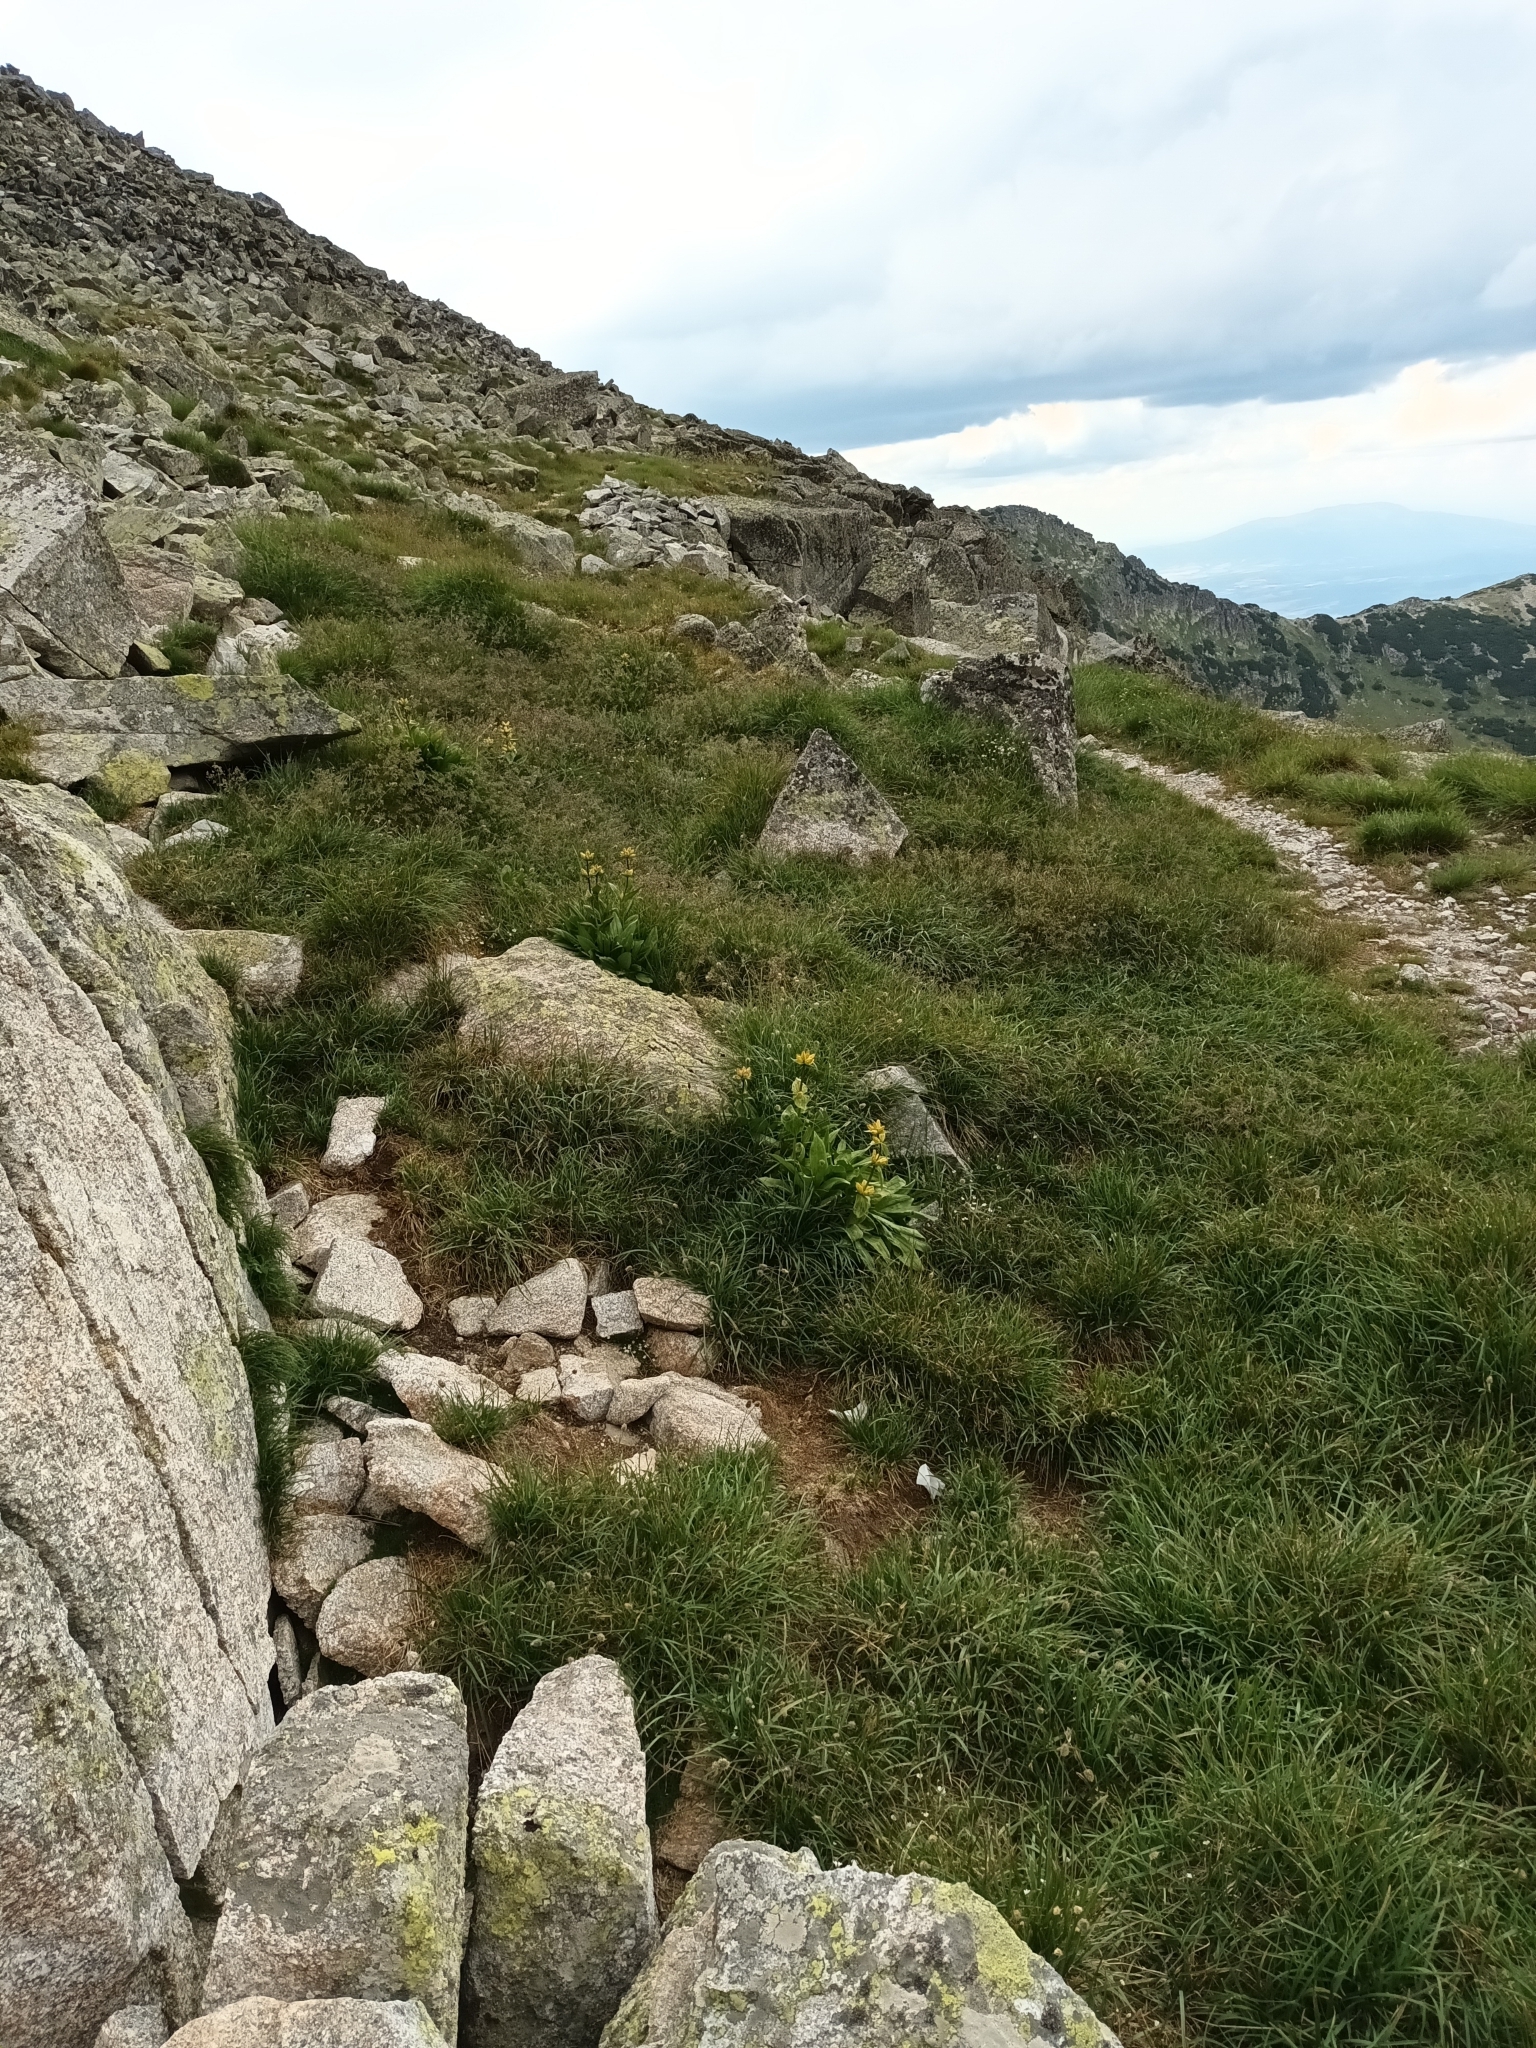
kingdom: Plantae
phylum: Tracheophyta
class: Magnoliopsida
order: Gentianales
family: Gentianaceae
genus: Gentiana
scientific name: Gentiana punctata
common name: Spotted gentian
